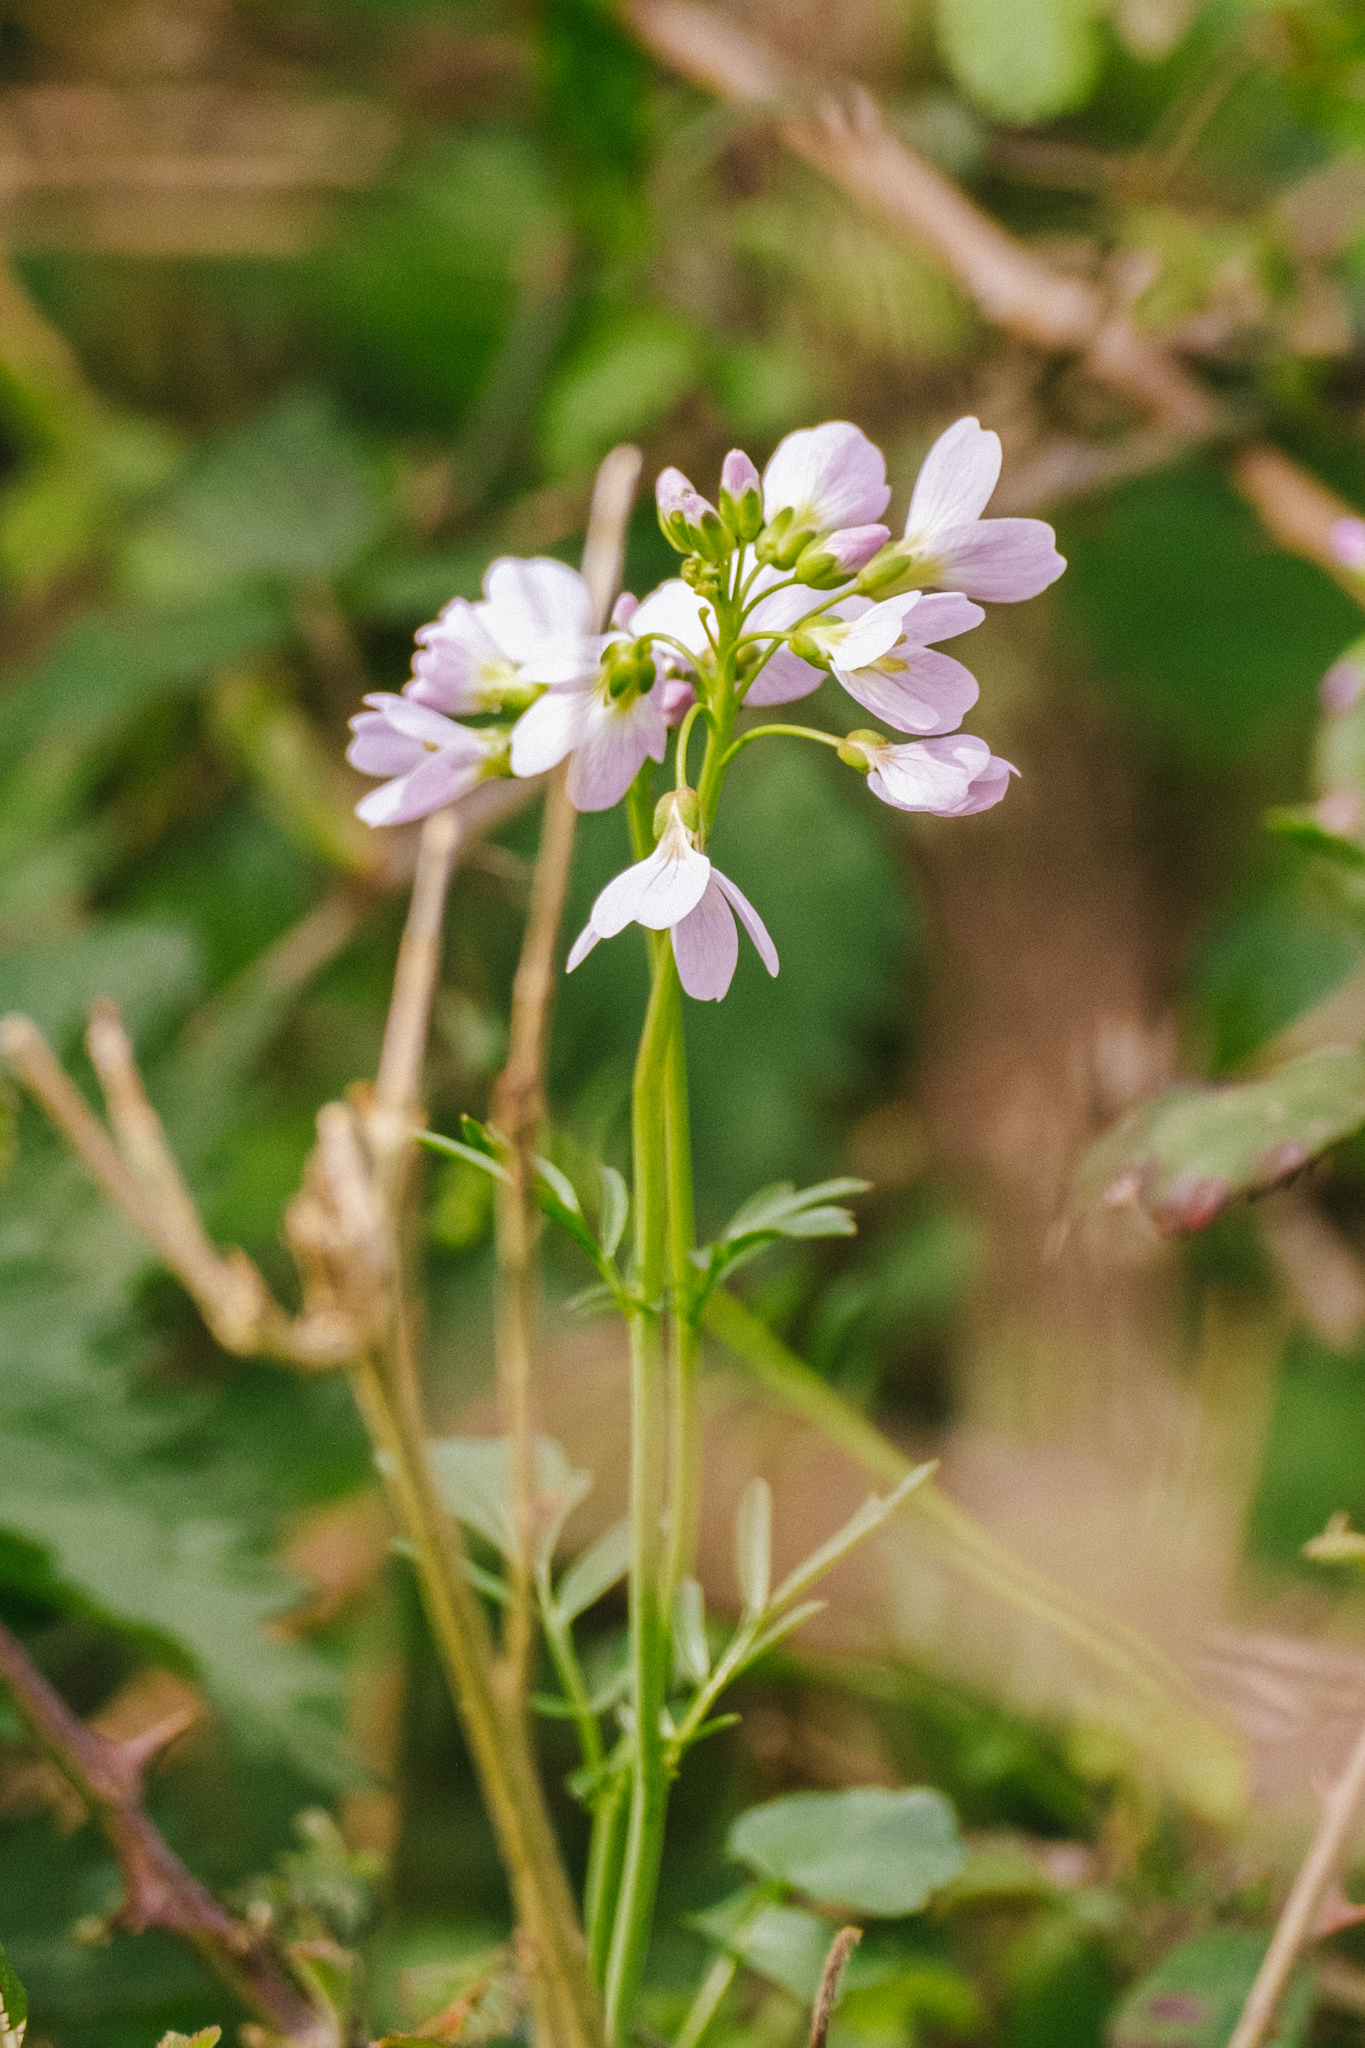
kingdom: Plantae
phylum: Tracheophyta
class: Magnoliopsida
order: Brassicales
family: Brassicaceae
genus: Cardamine
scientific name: Cardamine pratensis
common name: Cuckoo flower
